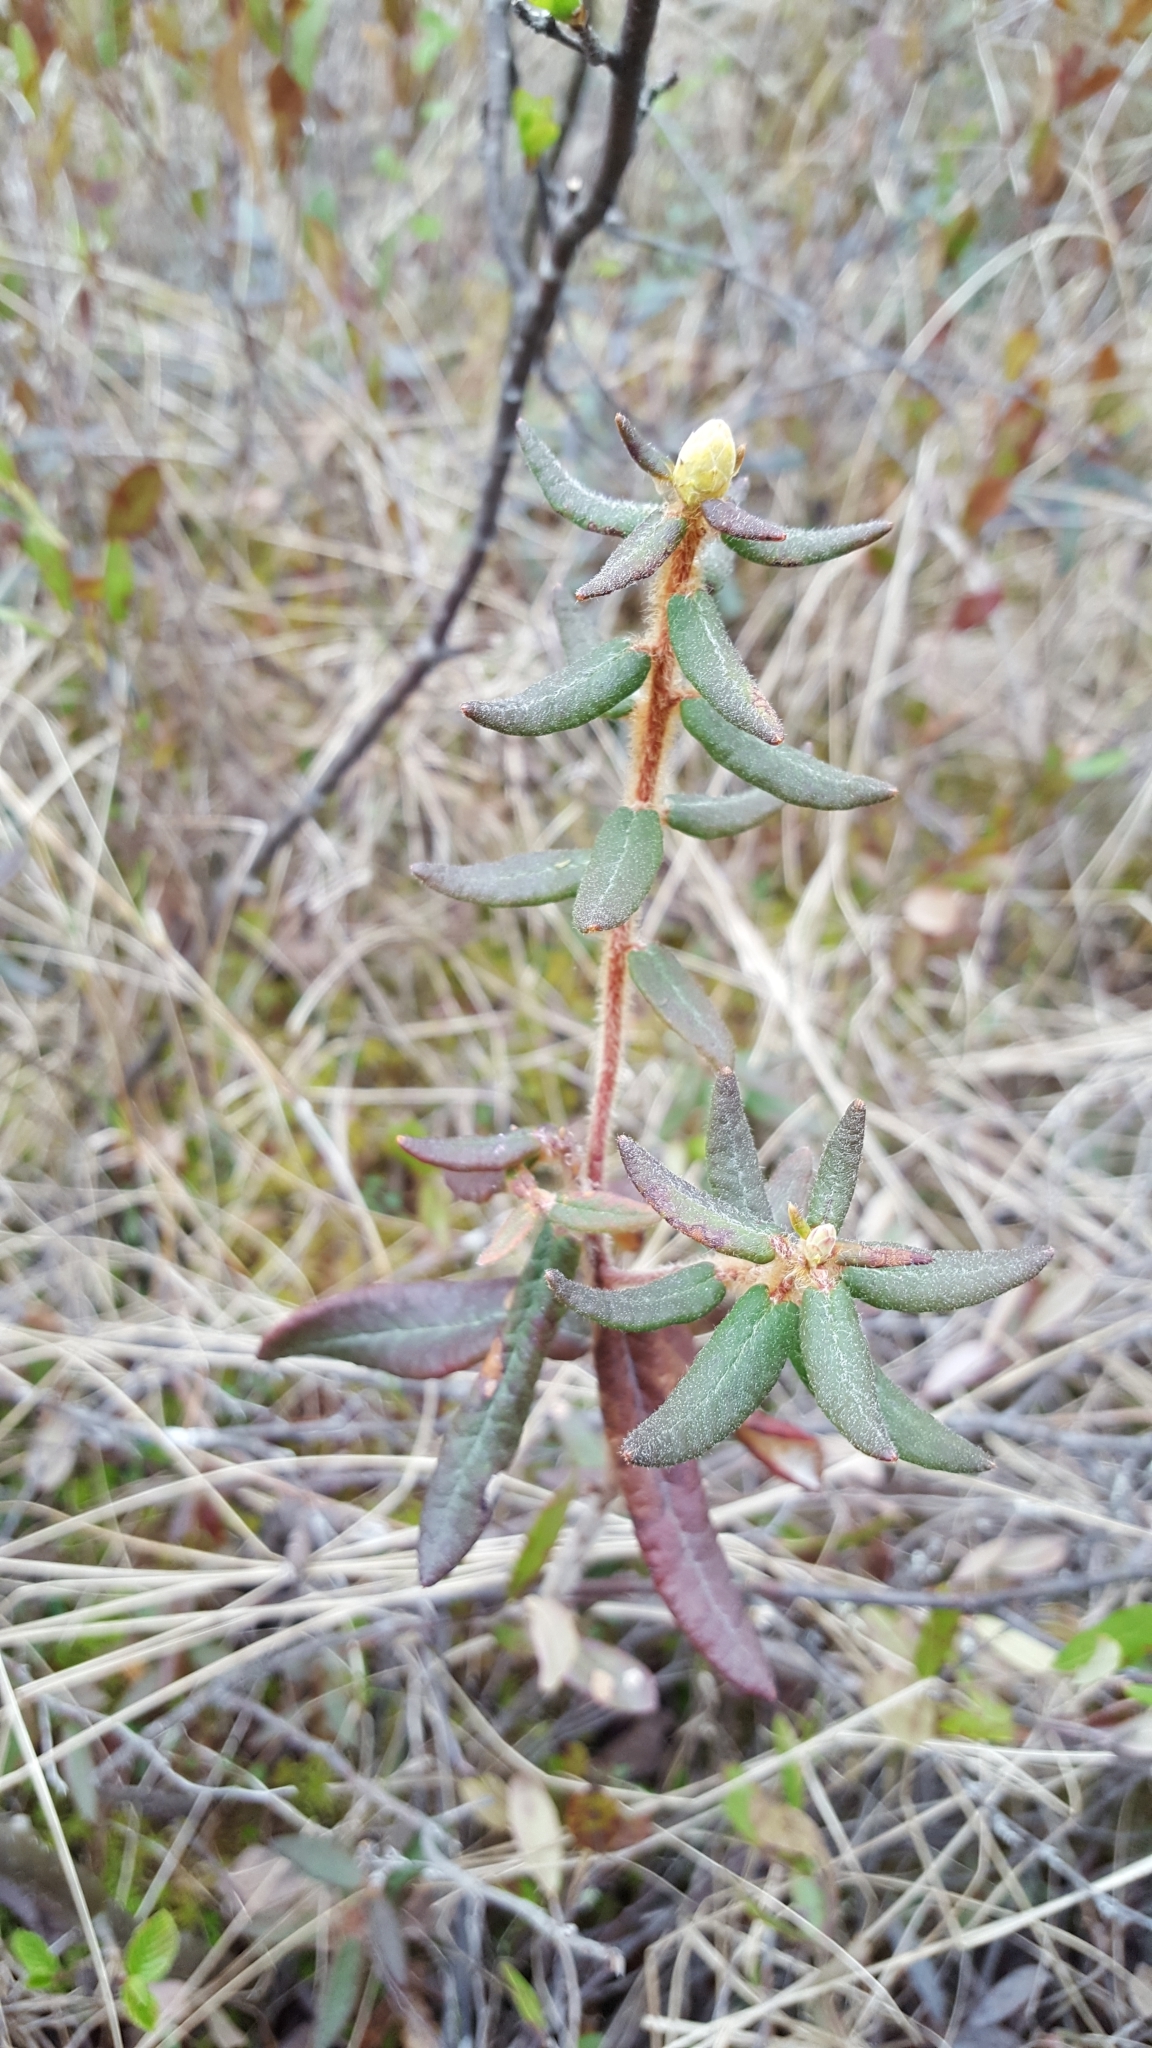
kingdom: Plantae
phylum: Tracheophyta
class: Magnoliopsida
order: Ericales
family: Ericaceae
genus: Rhododendron
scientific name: Rhododendron groenlandicum
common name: Bog labrador tea
